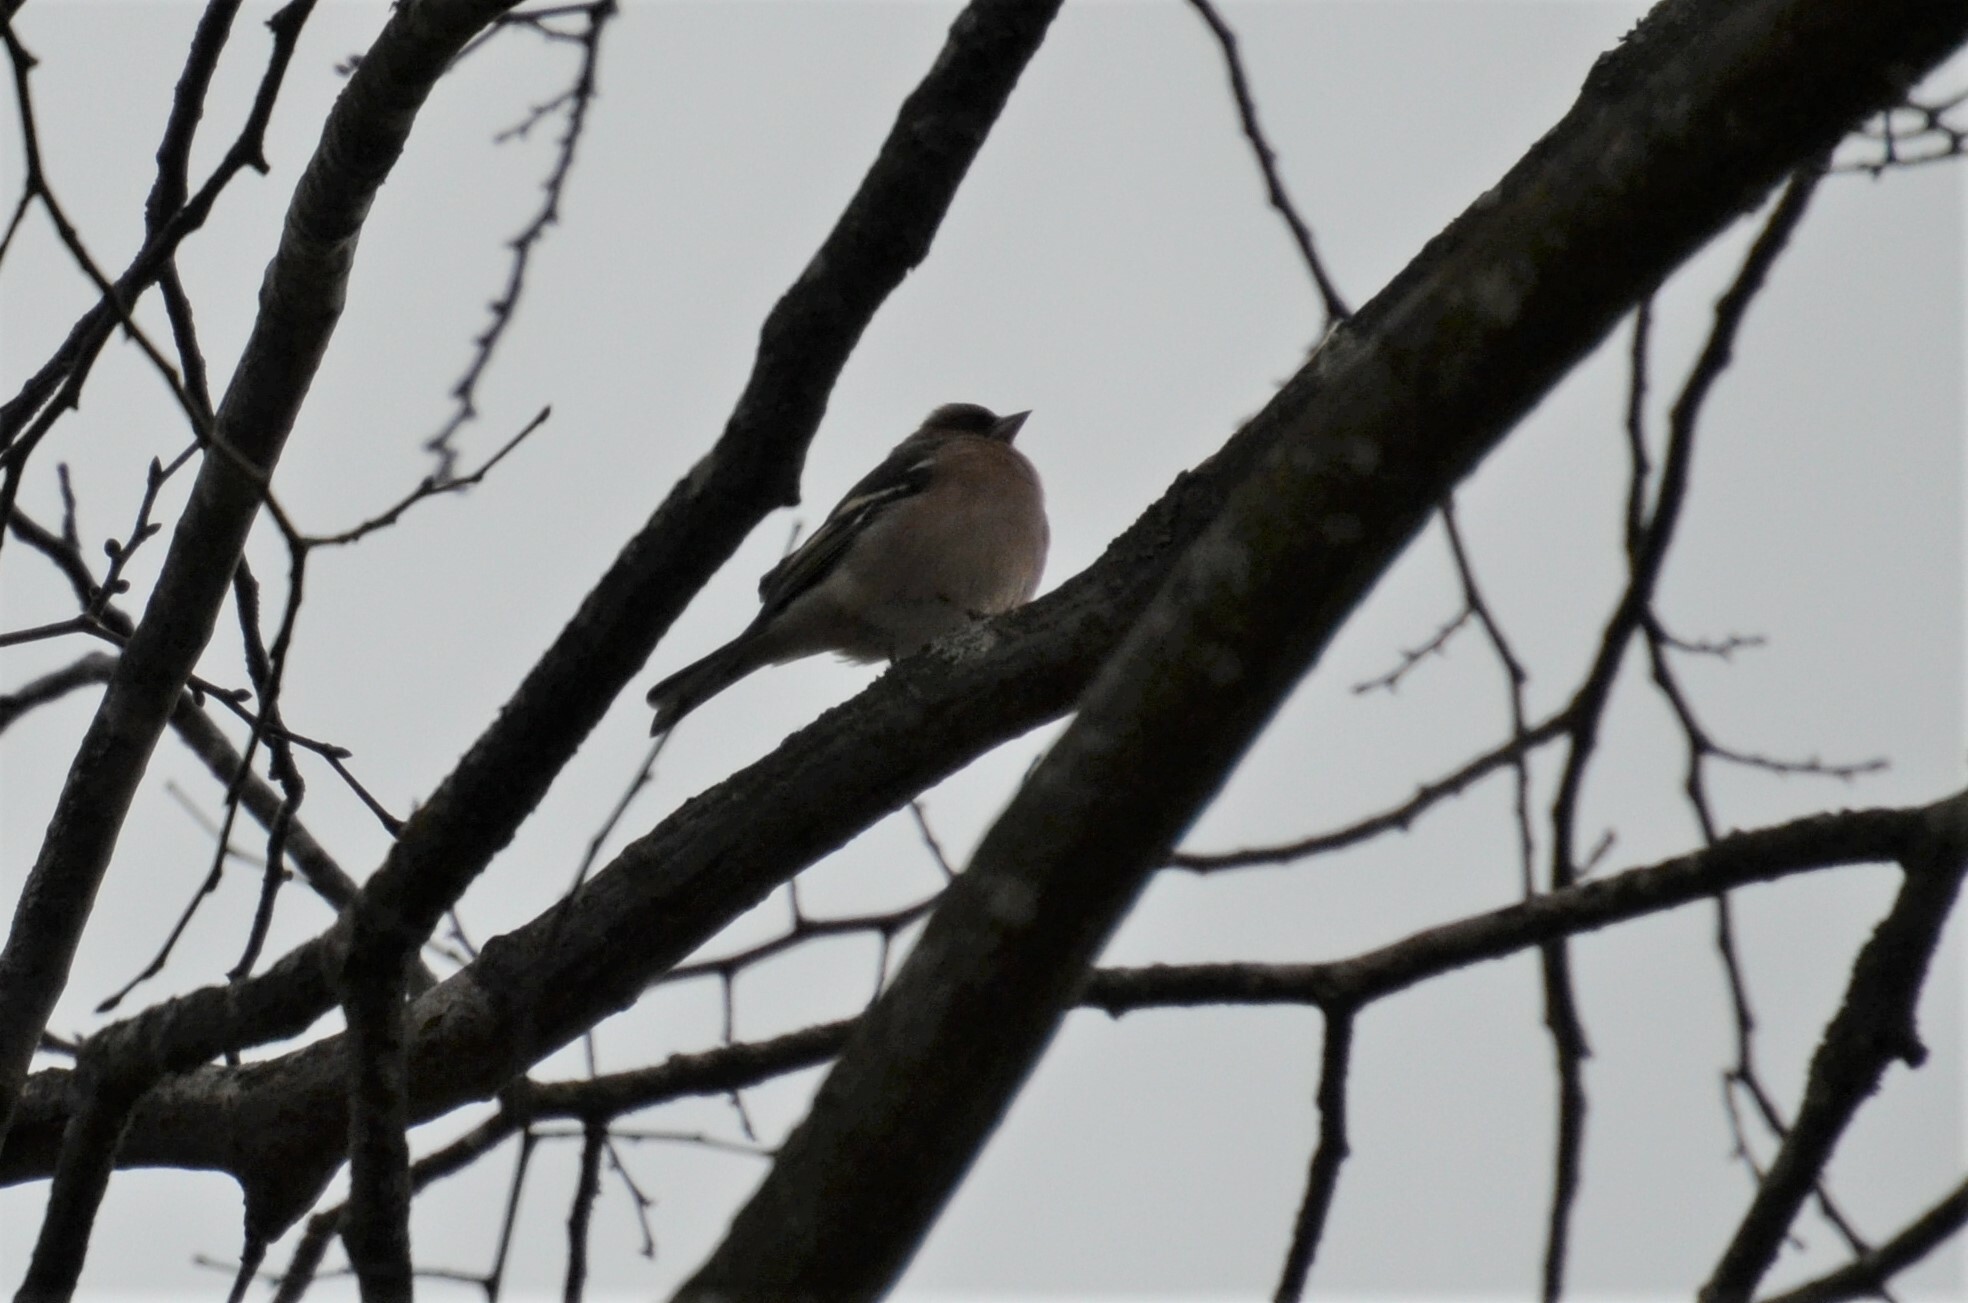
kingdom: Animalia
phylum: Chordata
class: Aves
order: Passeriformes
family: Fringillidae
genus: Fringilla
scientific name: Fringilla coelebs
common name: Common chaffinch
